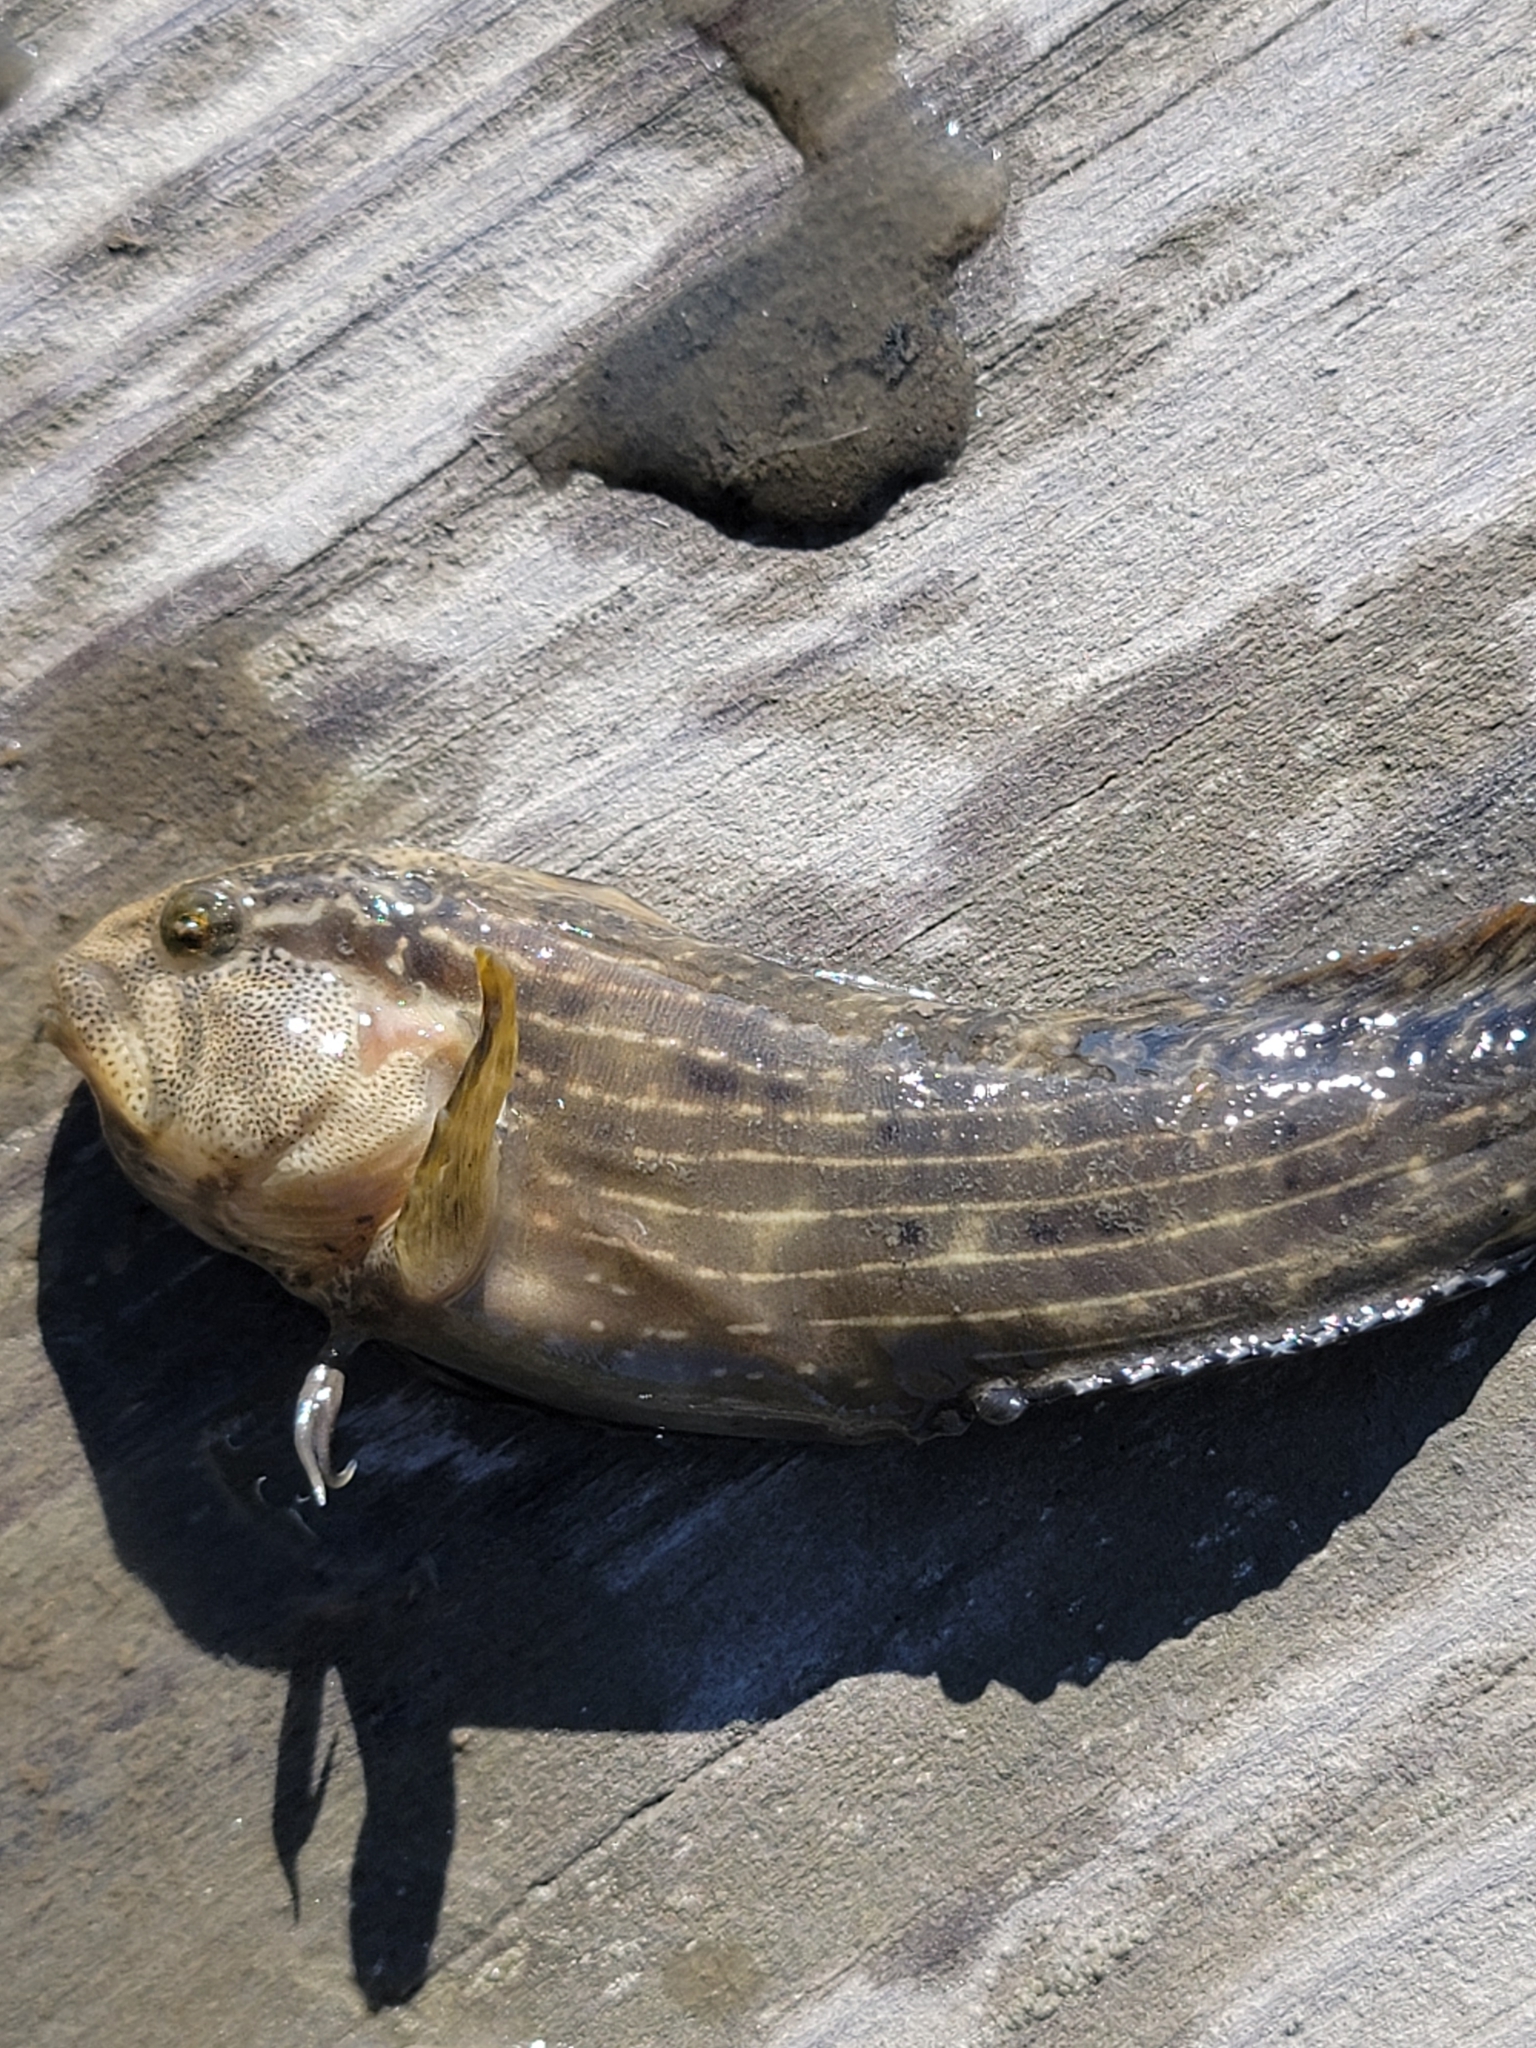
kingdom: Animalia
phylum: Chordata
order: Perciformes
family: Blenniidae
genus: Chasmodes
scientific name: Chasmodes bosquianus
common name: Striped blenny
